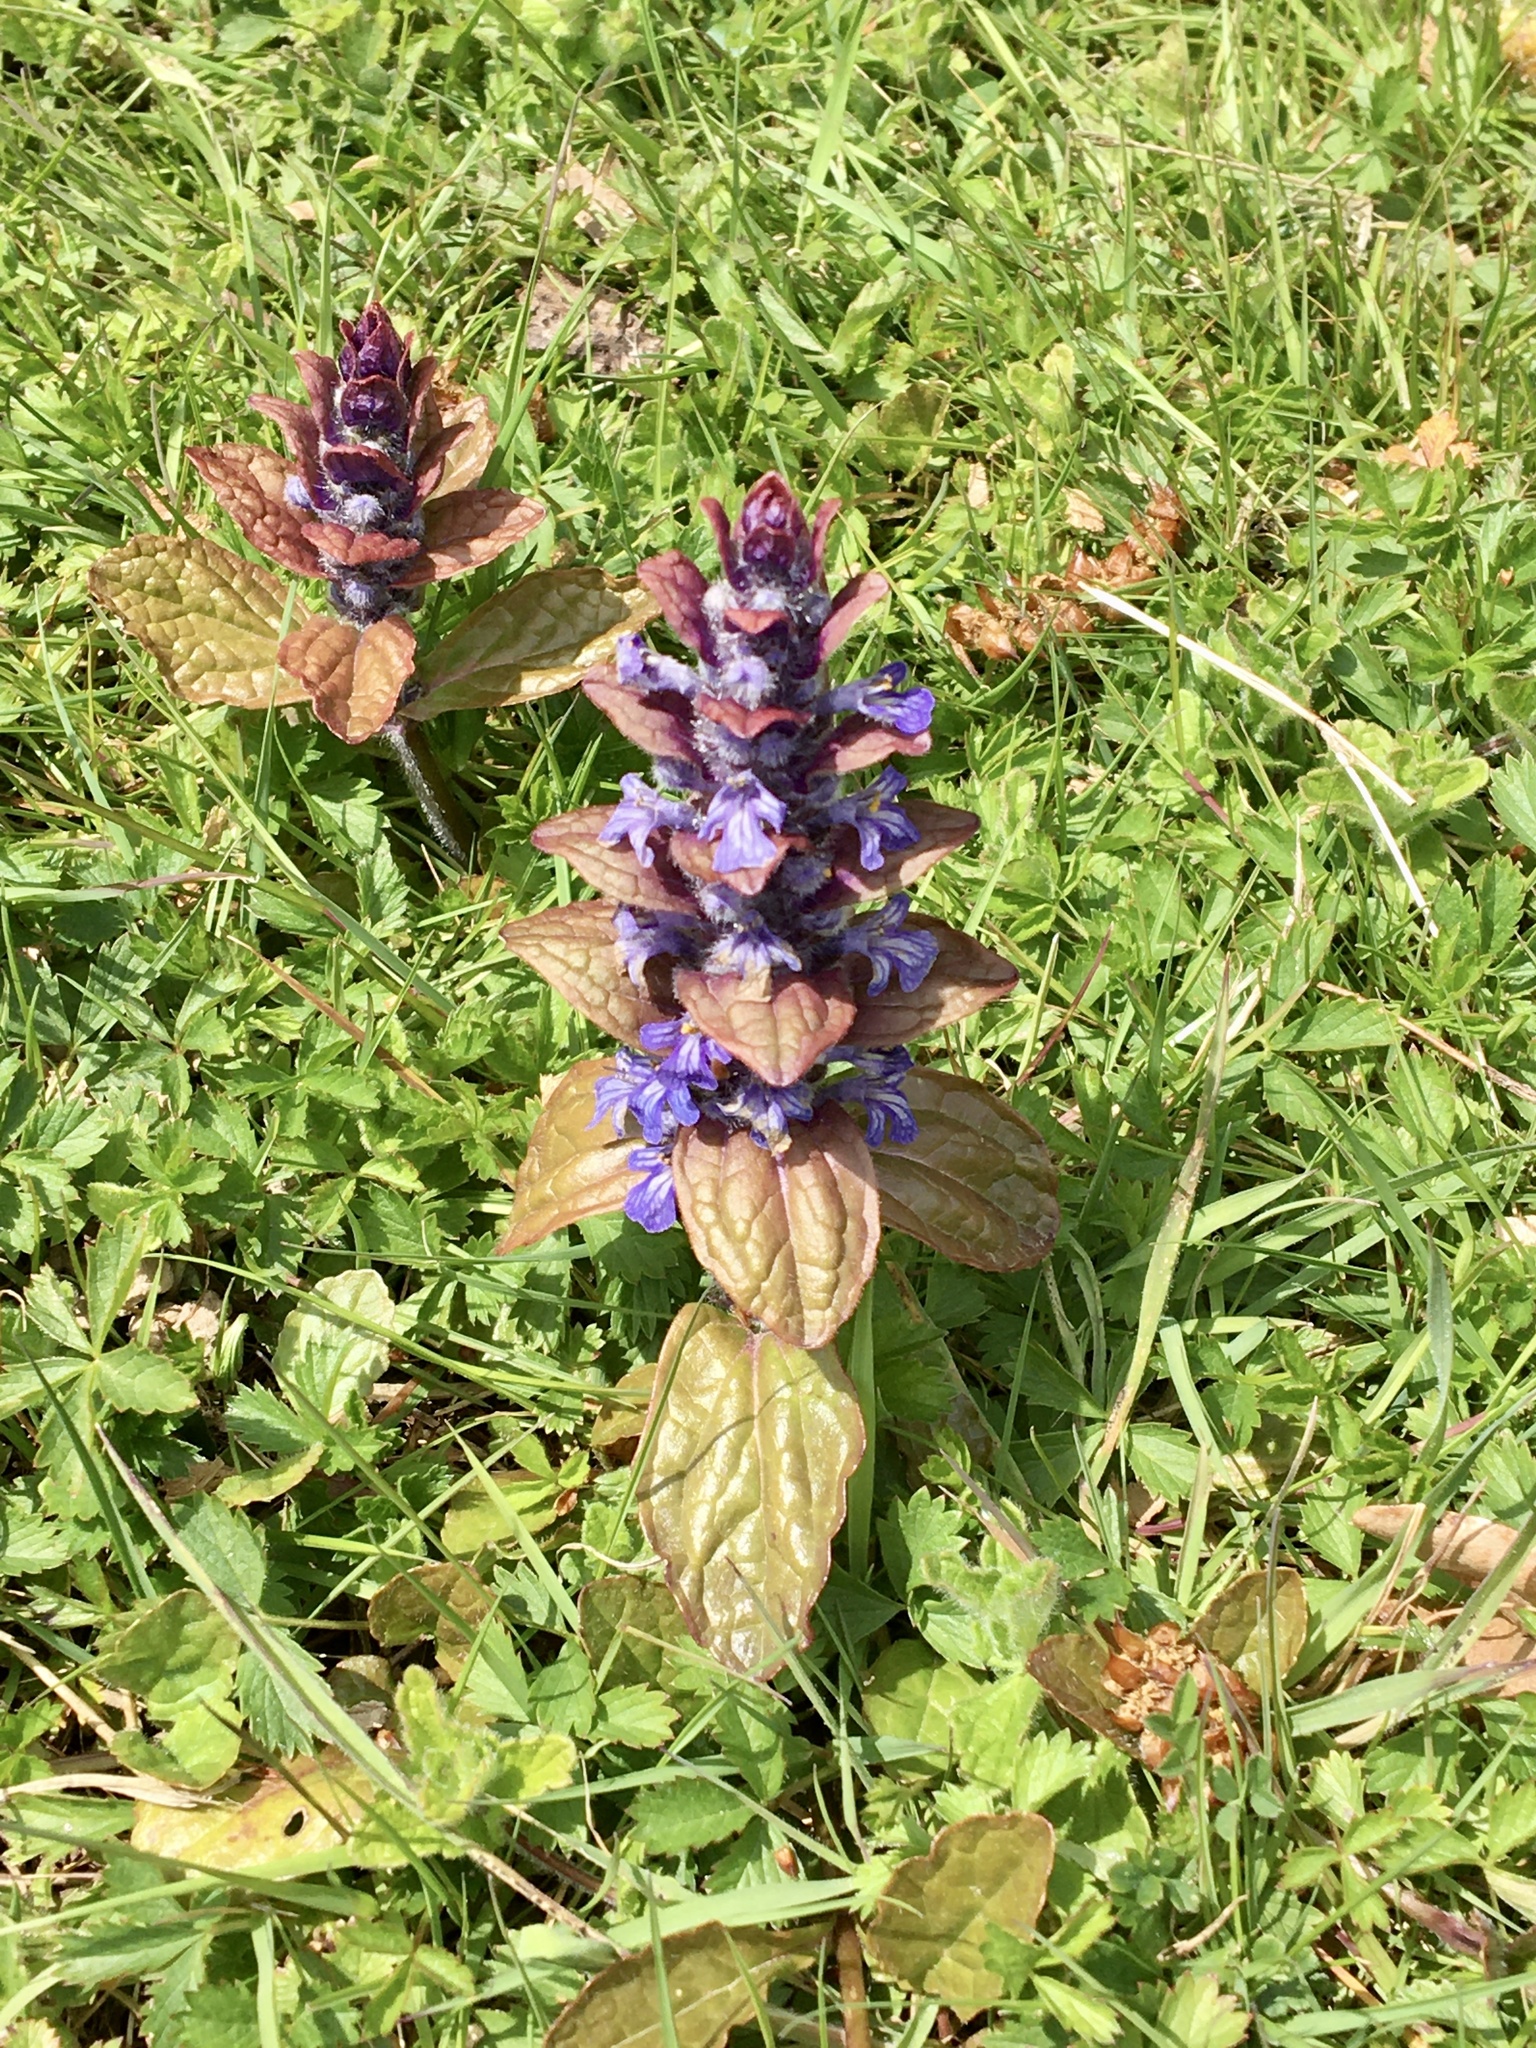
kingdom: Plantae
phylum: Tracheophyta
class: Magnoliopsida
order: Lamiales
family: Lamiaceae
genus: Ajuga
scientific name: Ajuga reptans
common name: Bugle
